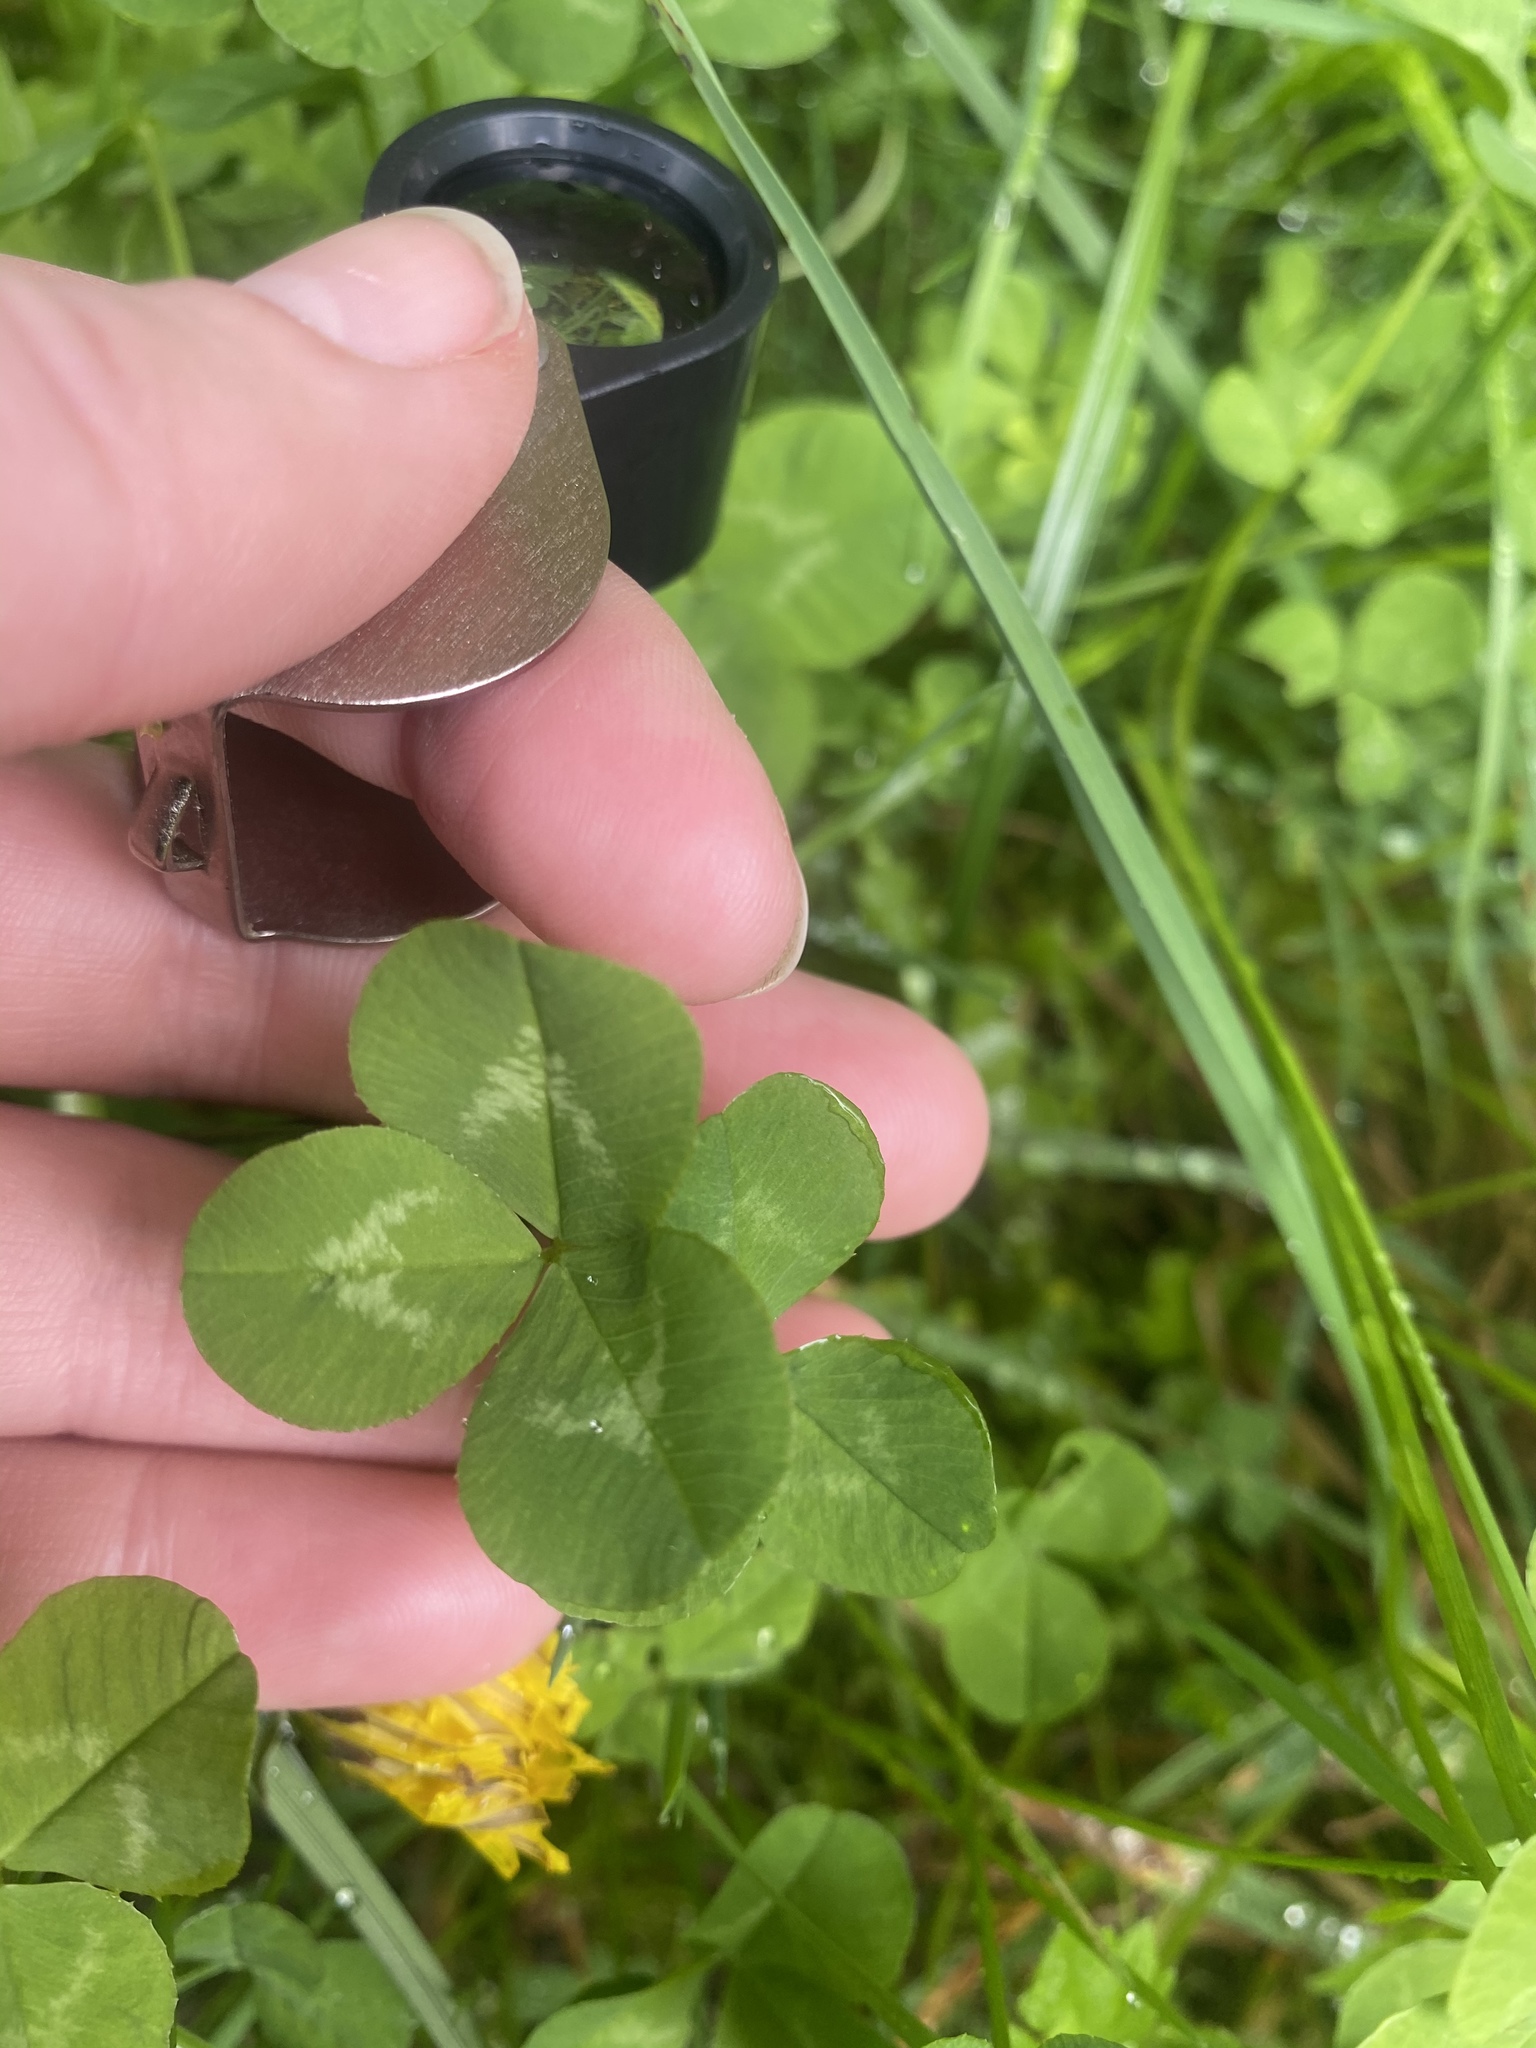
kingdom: Plantae
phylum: Tracheophyta
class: Magnoliopsida
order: Fabales
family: Fabaceae
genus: Trifolium
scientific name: Trifolium repens
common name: White clover
